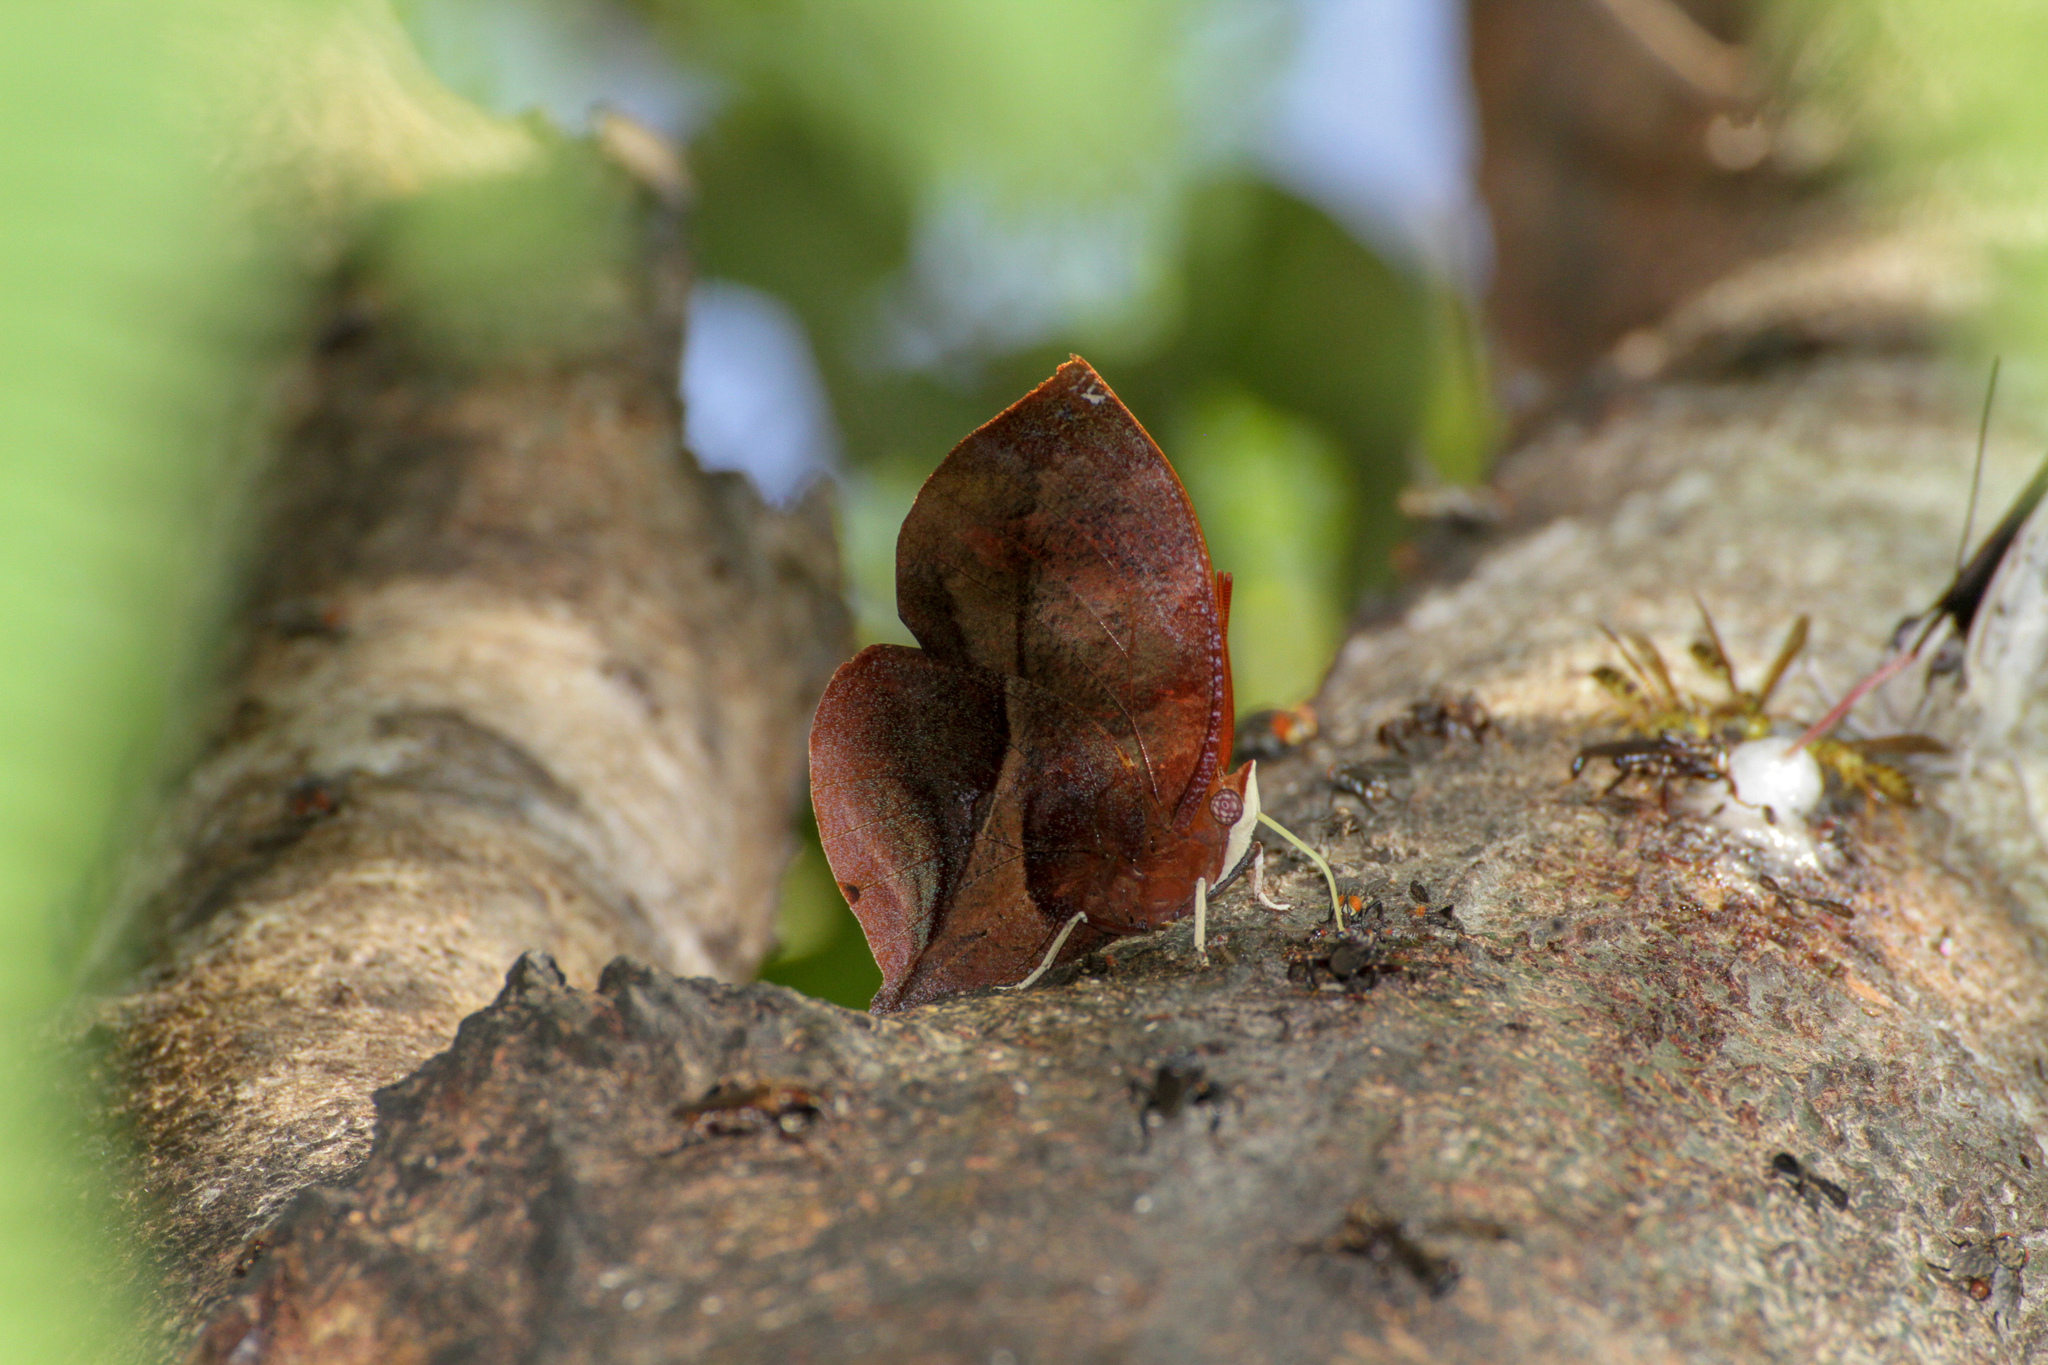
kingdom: Animalia
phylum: Arthropoda
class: Insecta
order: Lepidoptera
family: Nymphalidae
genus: Siderone
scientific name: Siderone galanthis
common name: Red-striped leafwing
